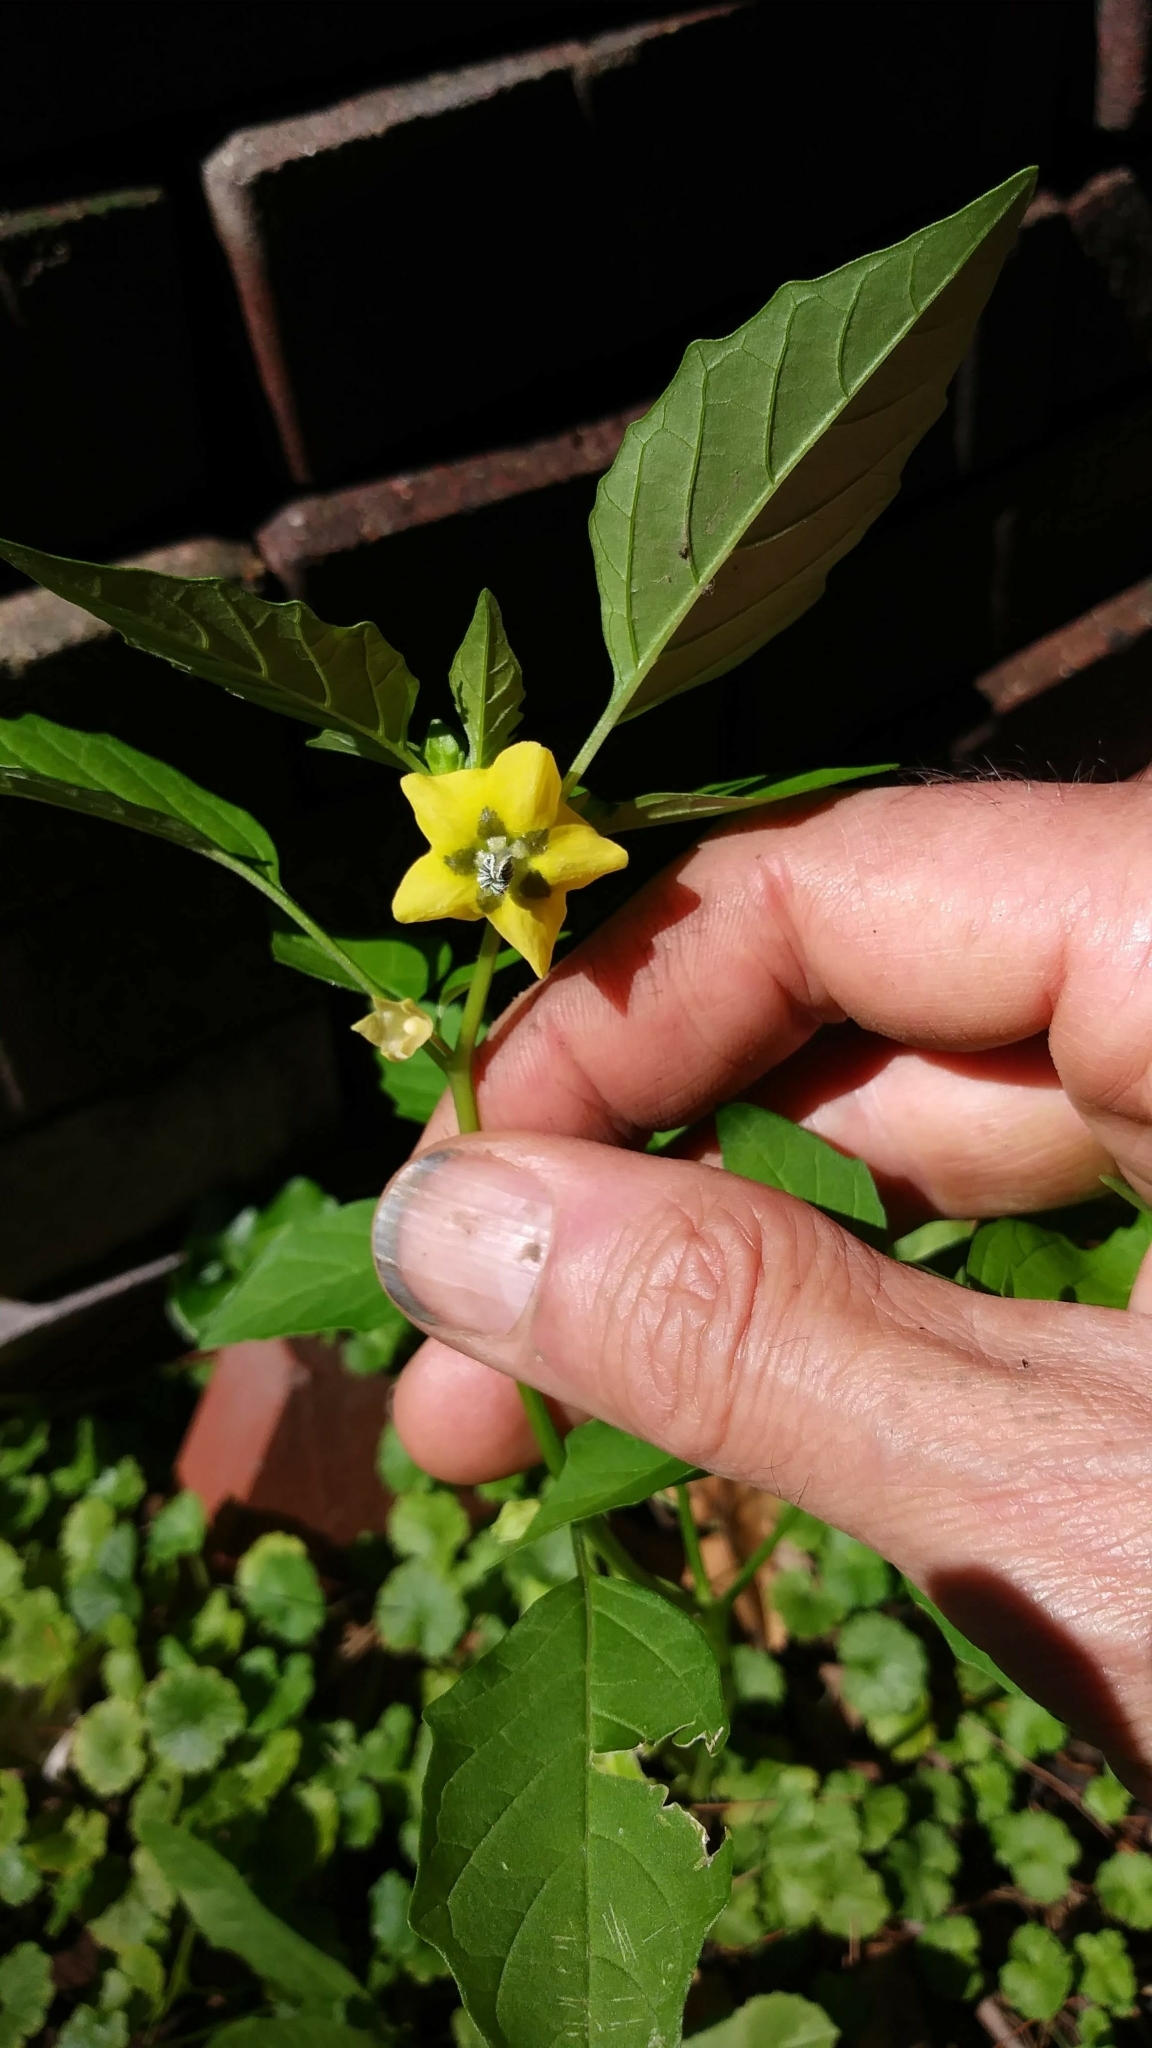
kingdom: Plantae
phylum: Tracheophyta
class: Magnoliopsida
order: Solanales
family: Solanaceae
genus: Physalis
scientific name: Physalis philadelphica
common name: Husk-tomato
